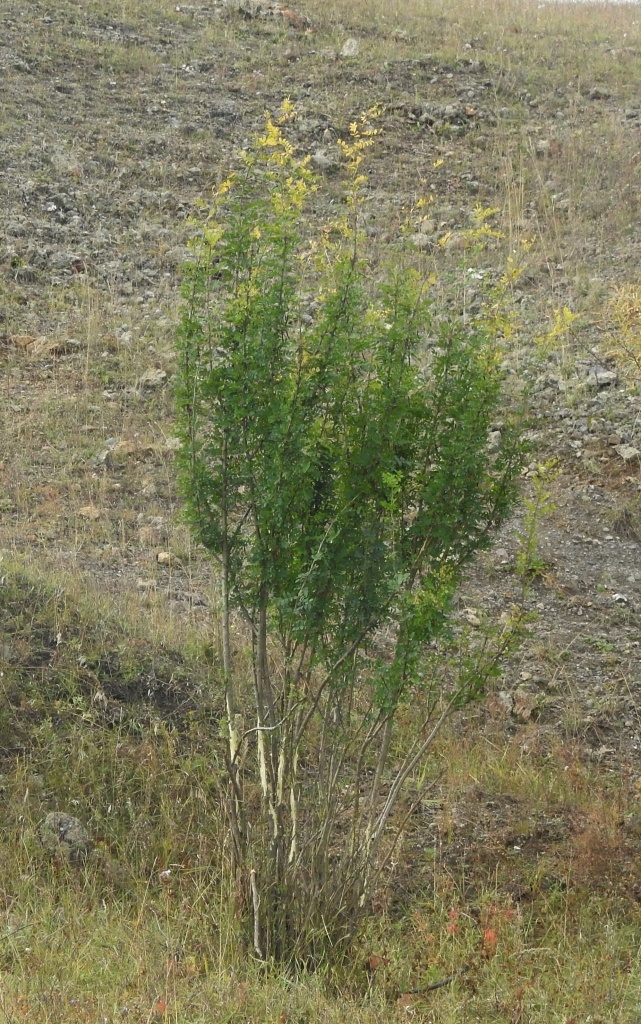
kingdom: Plantae
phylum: Tracheophyta
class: Magnoliopsida
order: Fabales
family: Fabaceae
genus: Caragana
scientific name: Caragana arborescens
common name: Siberian peashrub
